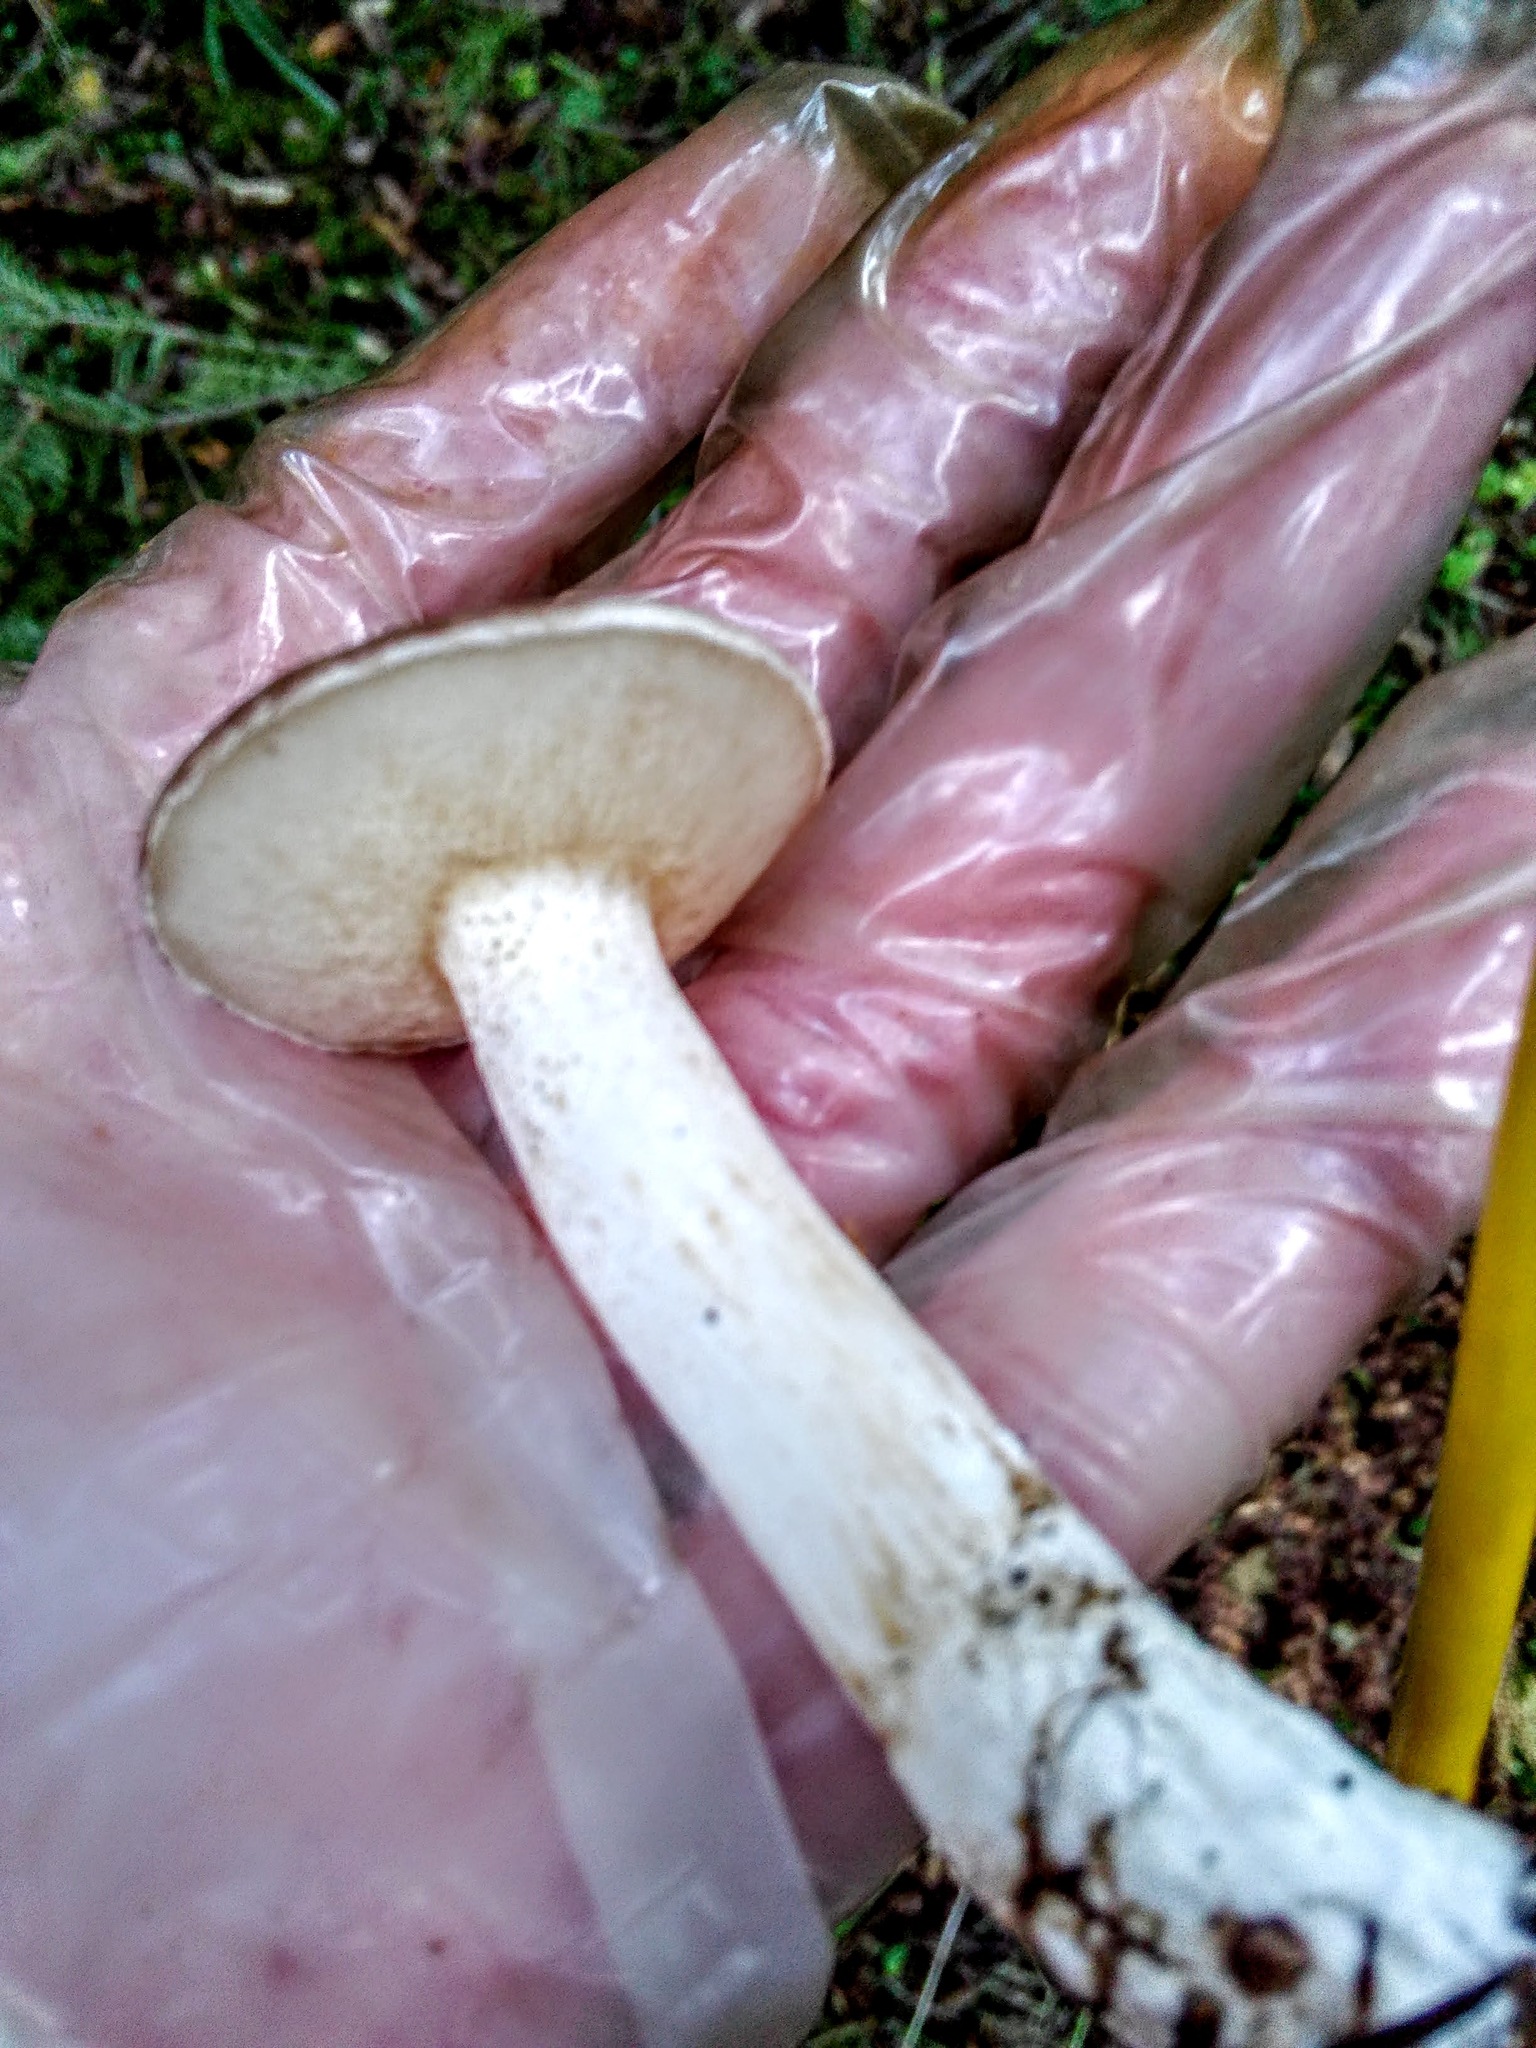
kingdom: Fungi
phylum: Basidiomycota
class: Agaricomycetes
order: Boletales
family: Suillaceae
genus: Suillus
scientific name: Suillus placidus
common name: Slippery white bolete
